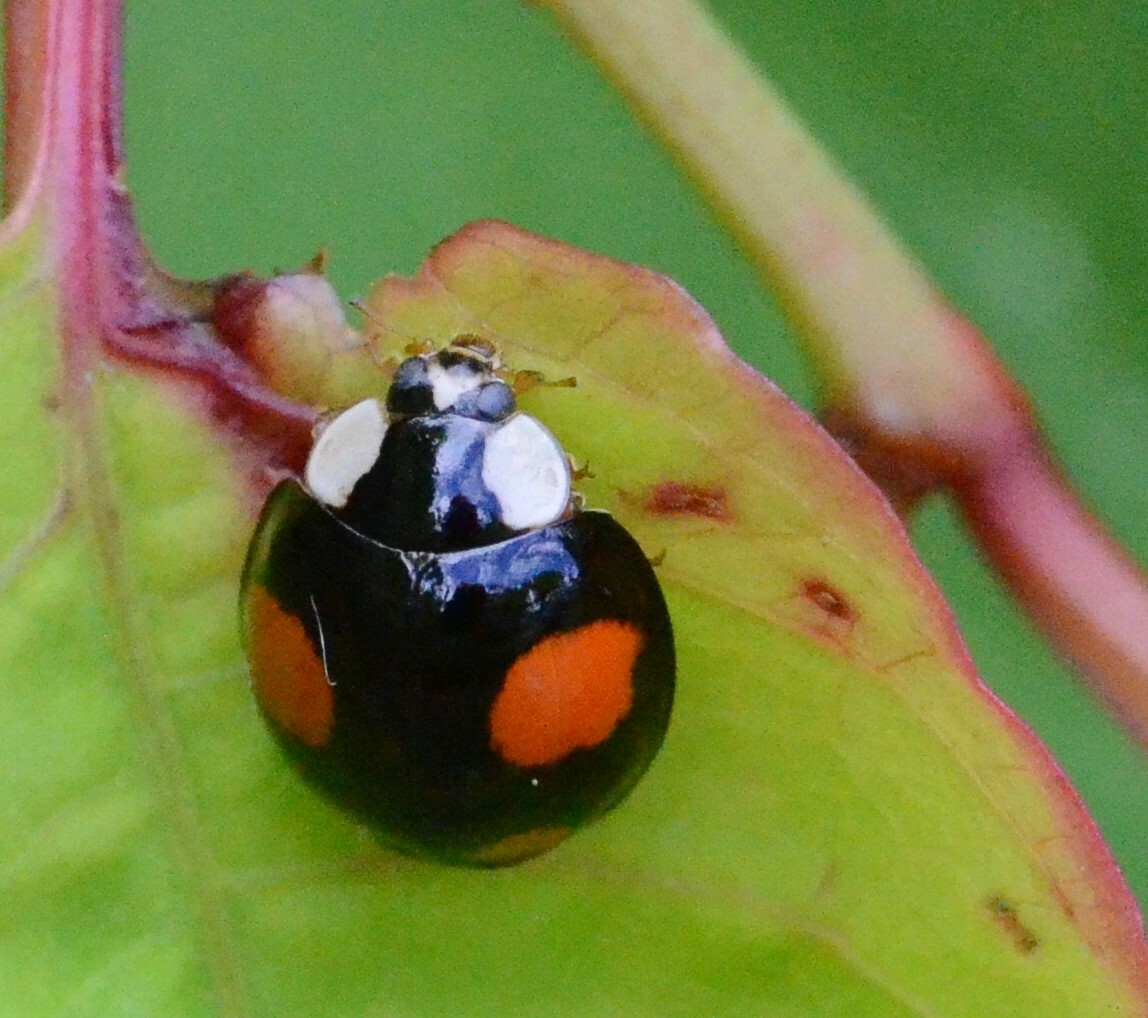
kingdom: Animalia
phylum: Arthropoda
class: Insecta
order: Coleoptera
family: Coccinellidae
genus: Harmonia
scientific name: Harmonia axyridis
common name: Harlequin ladybird
